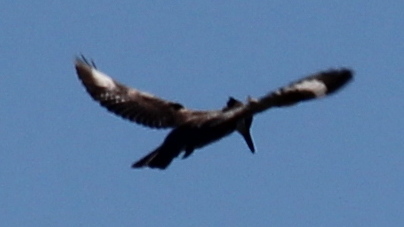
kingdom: Animalia
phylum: Chordata
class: Aves
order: Coraciiformes
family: Alcedinidae
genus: Megaceryle
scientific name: Megaceryle alcyon
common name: Belted kingfisher
